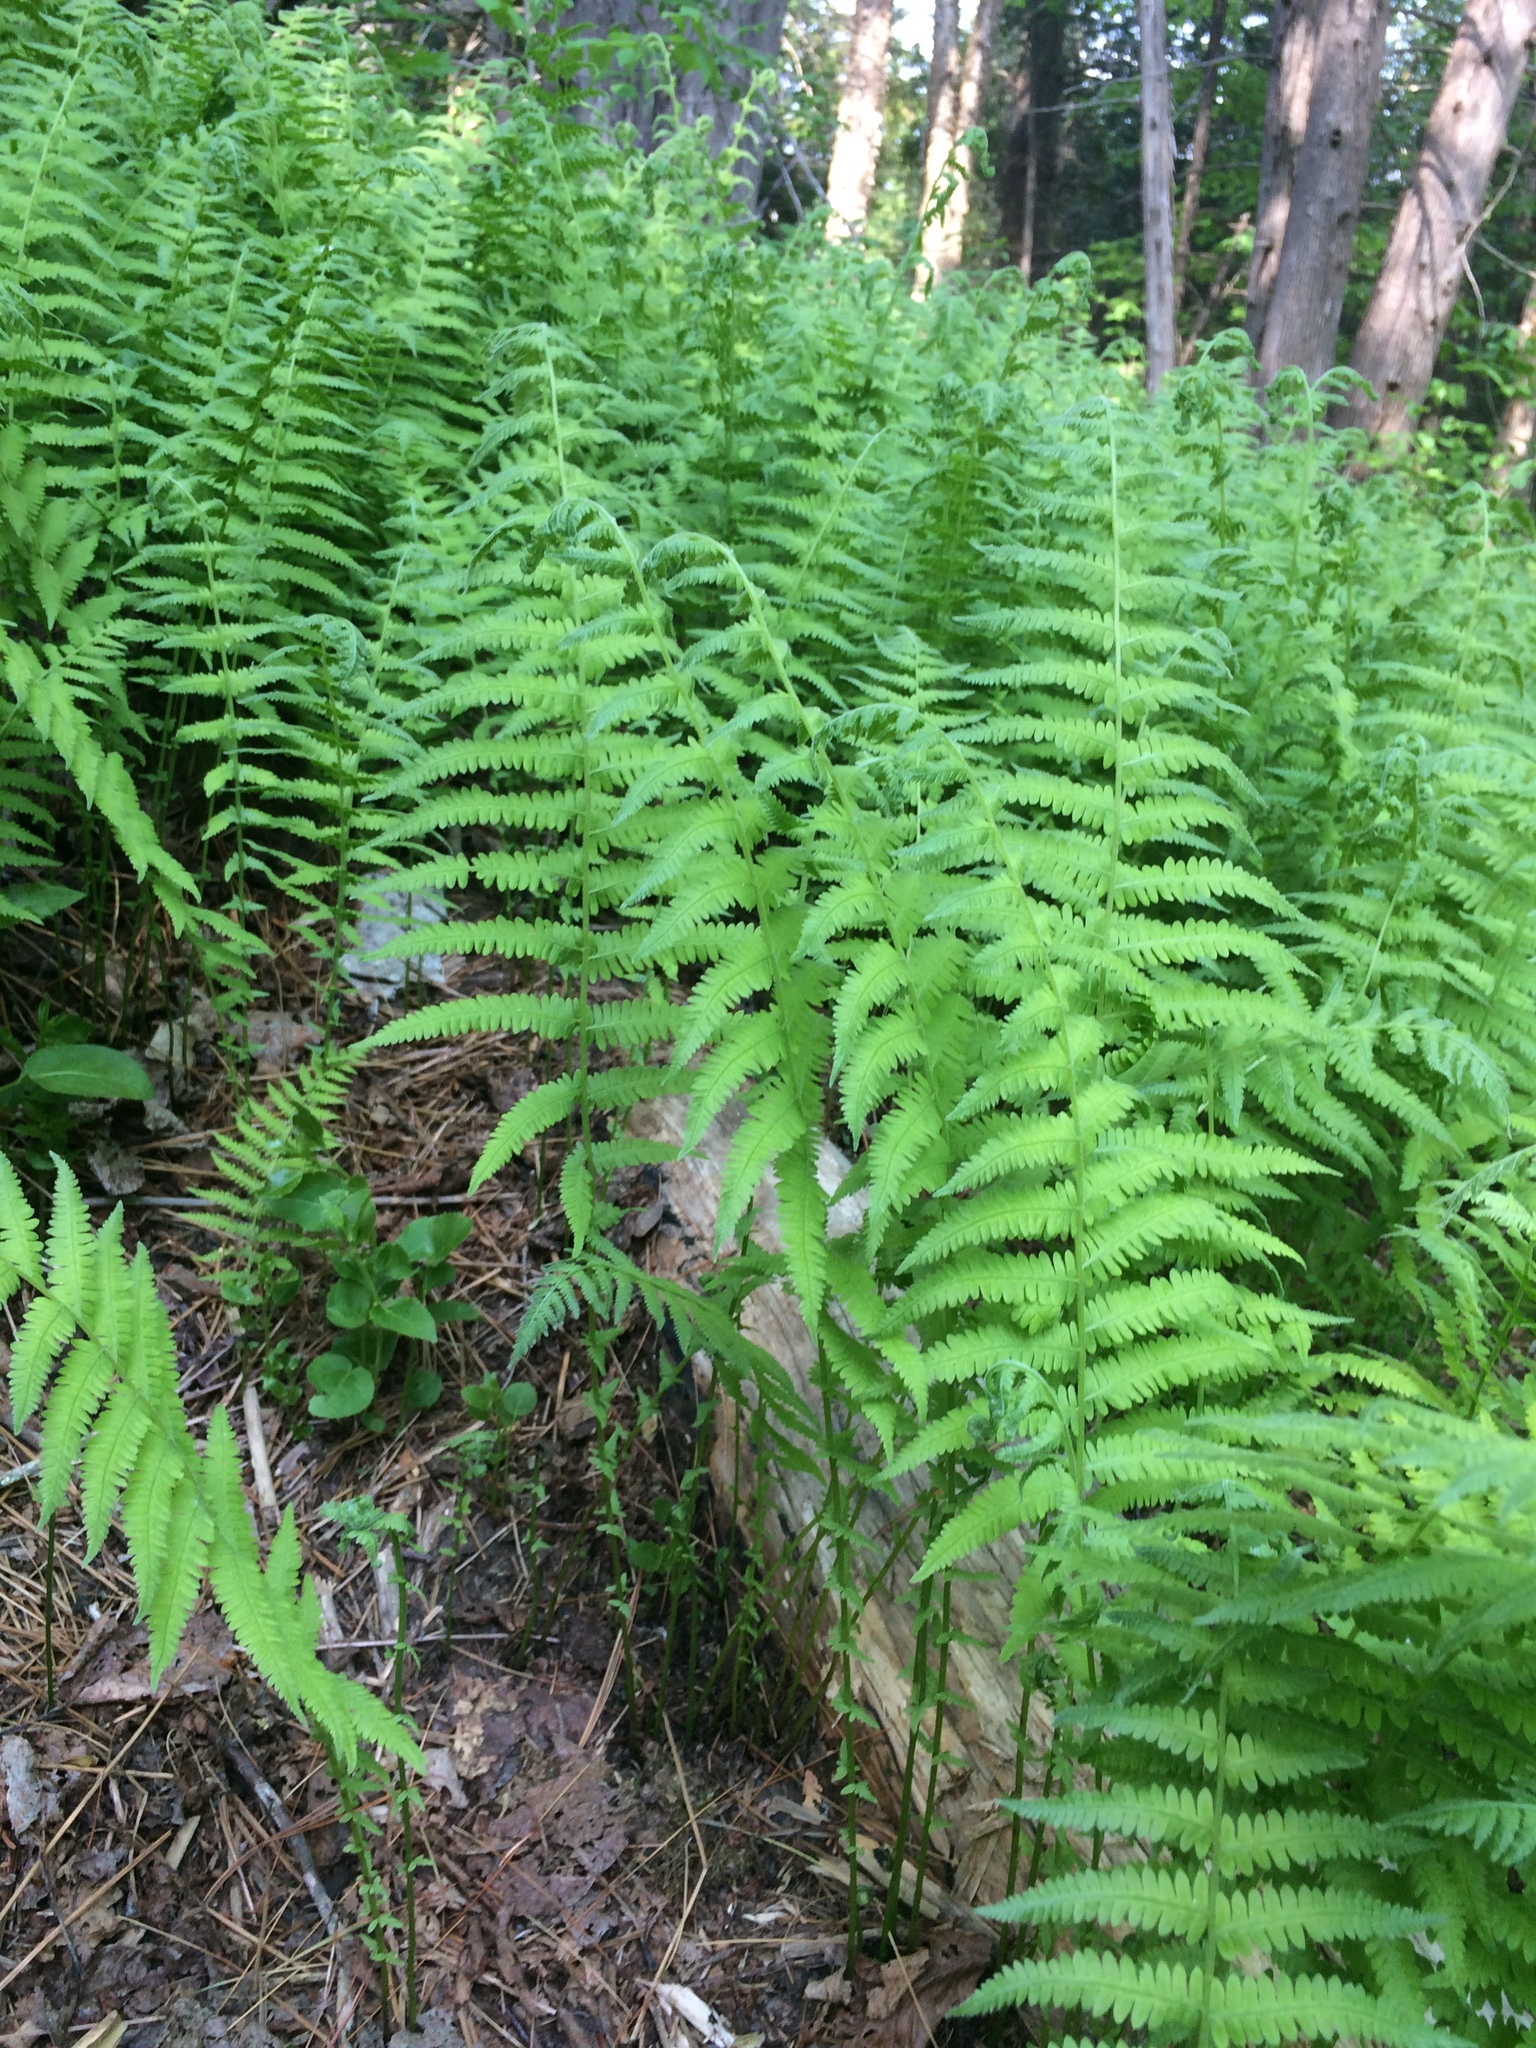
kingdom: Plantae
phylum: Tracheophyta
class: Polypodiopsida
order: Polypodiales
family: Thelypteridaceae
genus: Amauropelta
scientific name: Amauropelta noveboracensis
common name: New york fern
